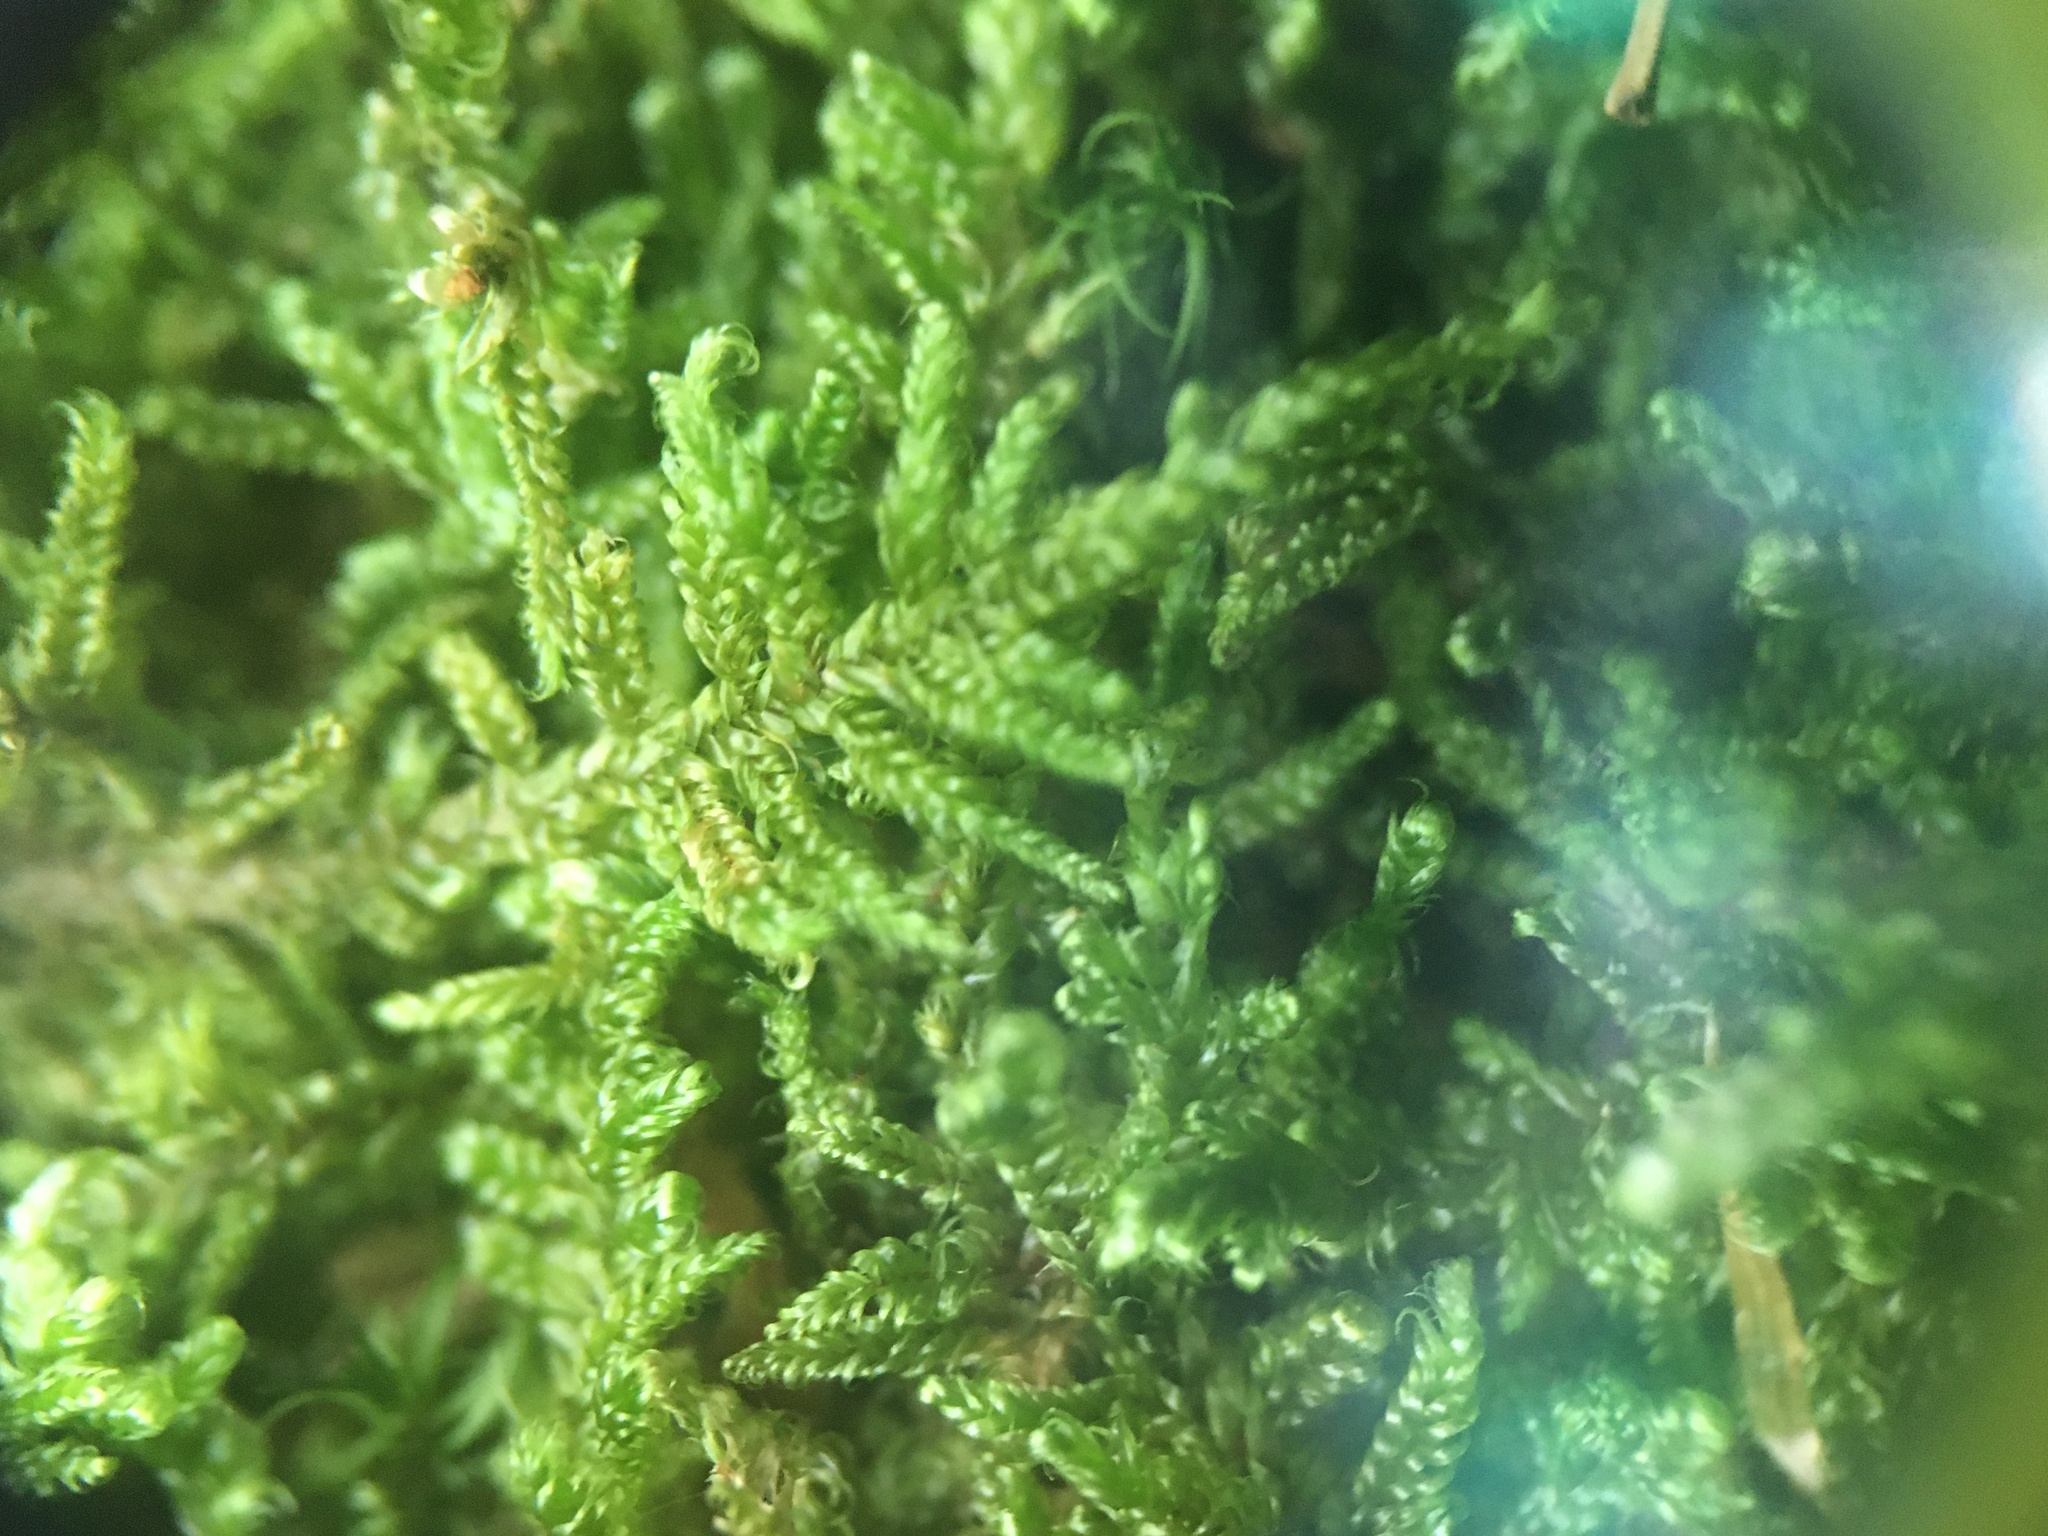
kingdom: Plantae
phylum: Bryophyta
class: Bryopsida
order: Hypnales
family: Callicladiaceae
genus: Callicladium
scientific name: Callicladium imponens
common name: Brocade moss
